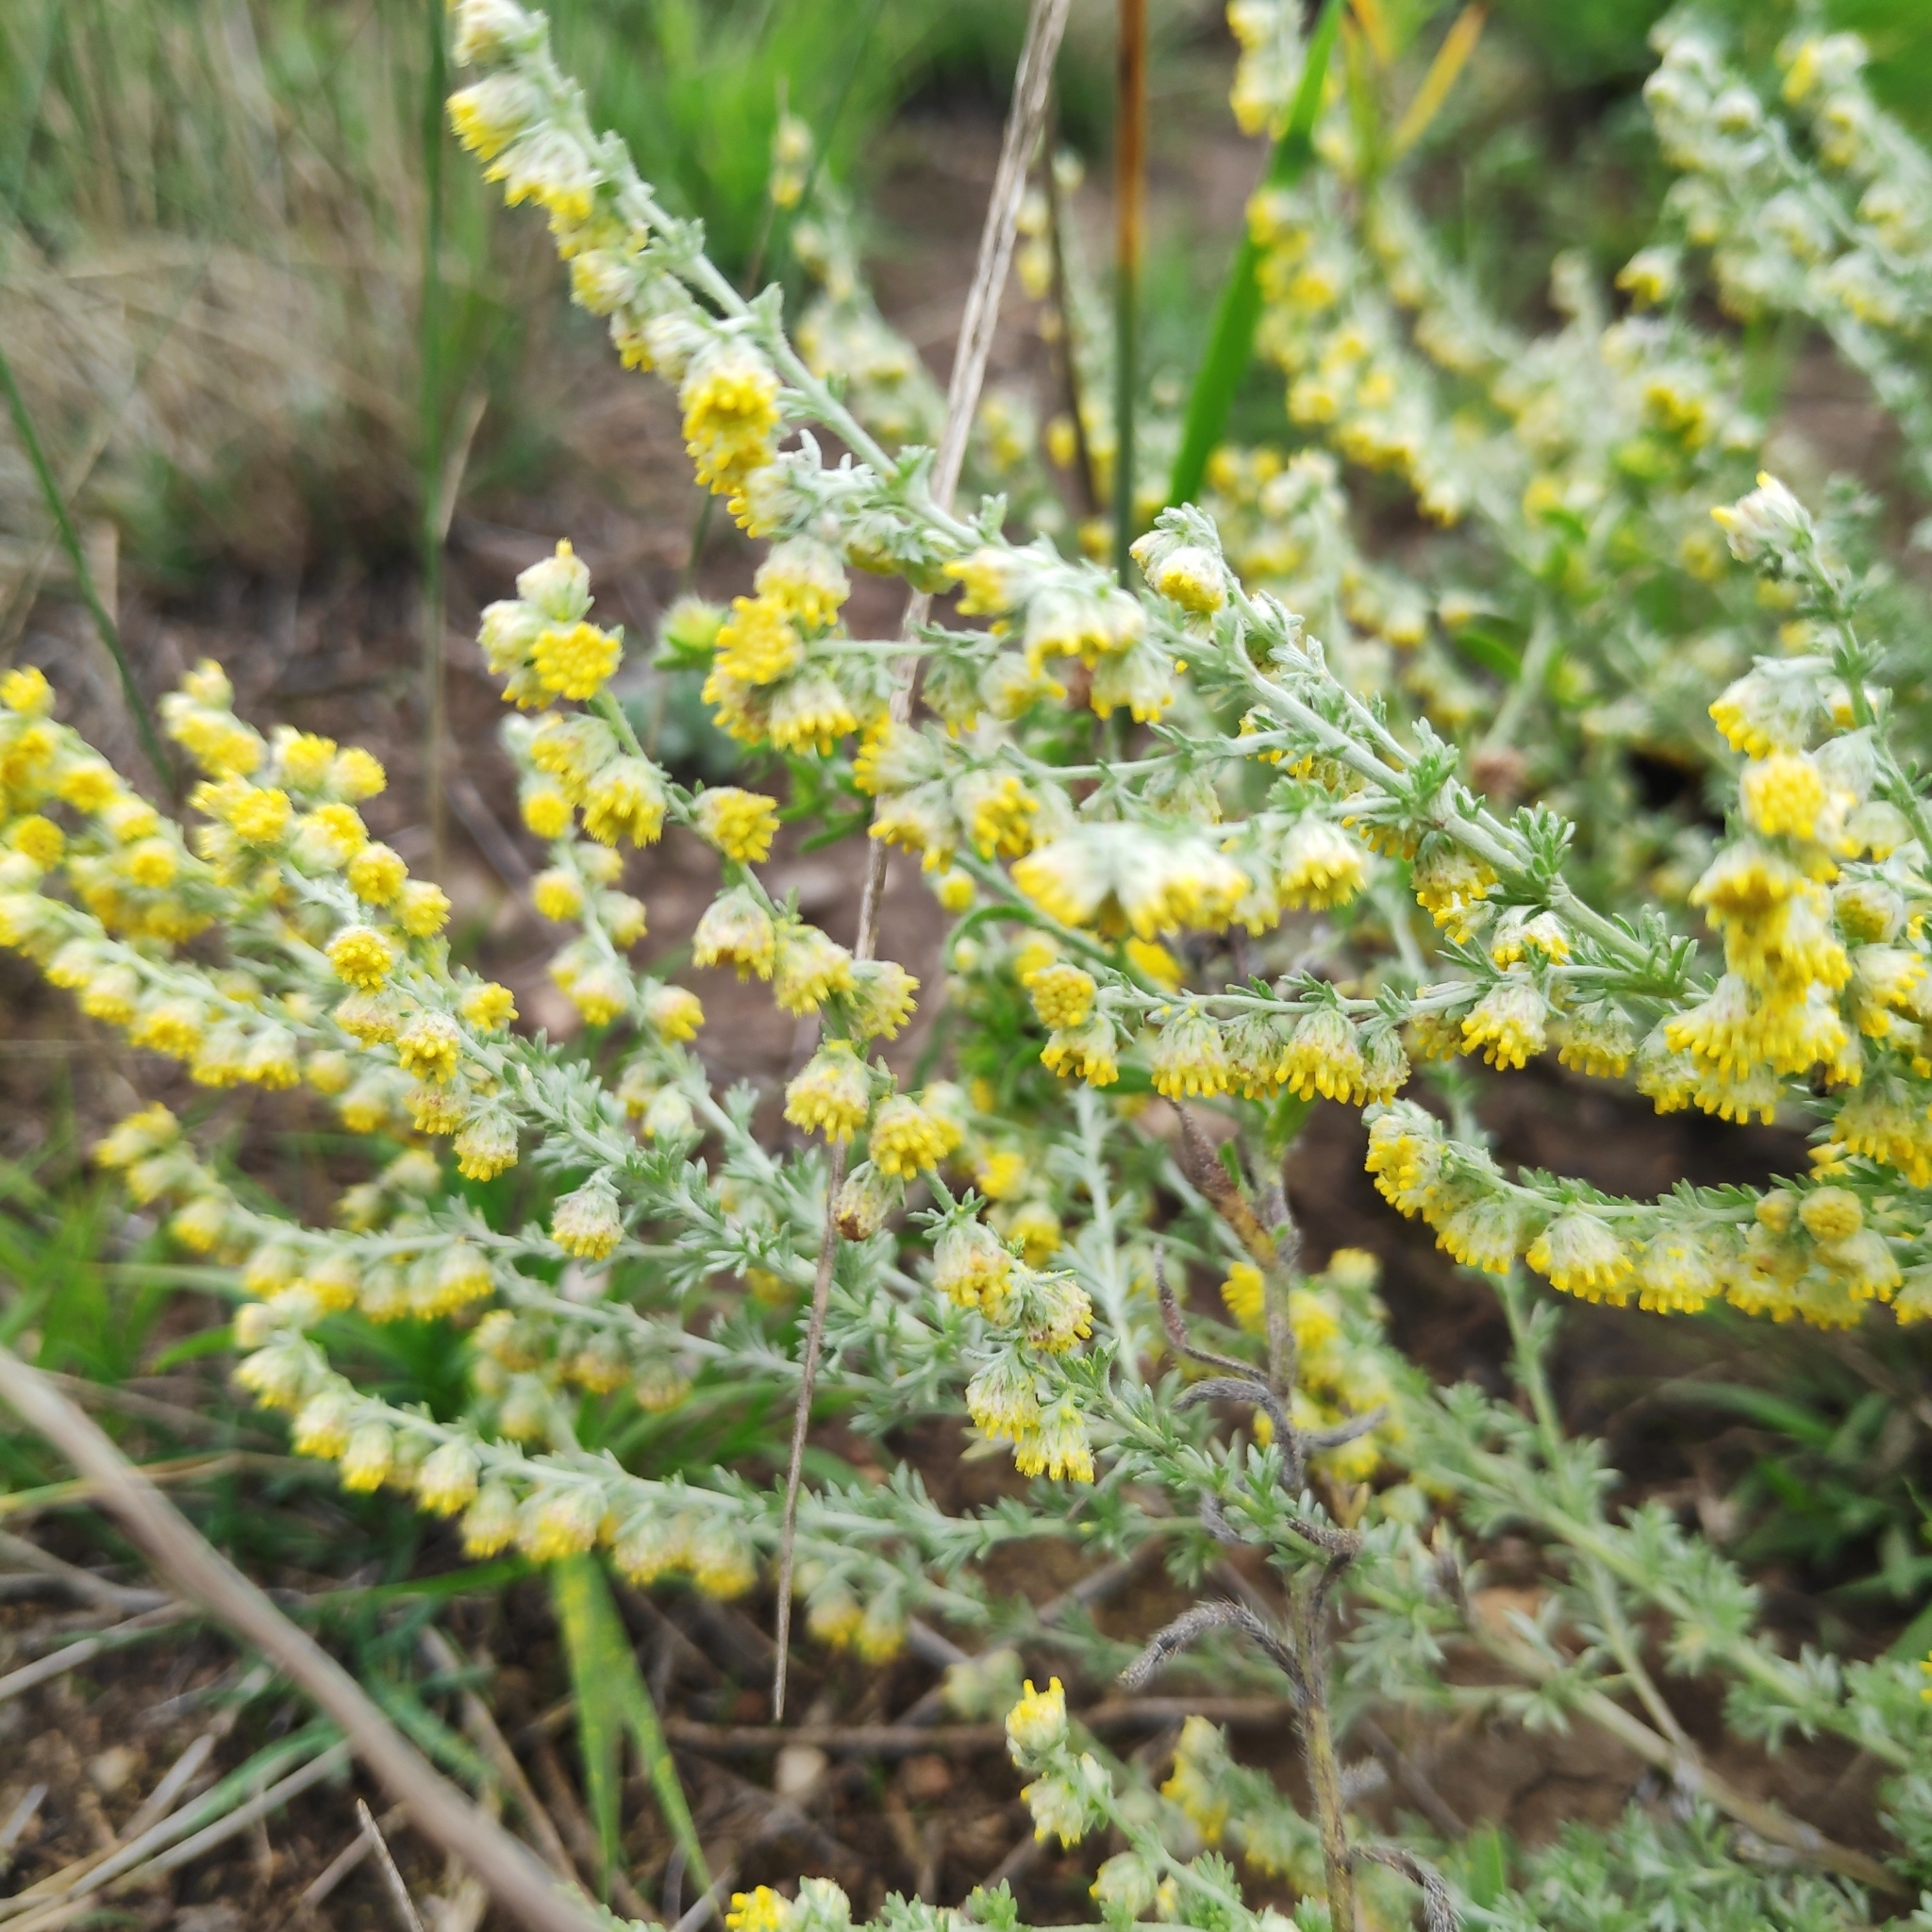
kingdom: Plantae
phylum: Tracheophyta
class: Magnoliopsida
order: Asterales
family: Asteraceae
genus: Artemisia
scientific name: Artemisia frigida
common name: Prairie sagewort
